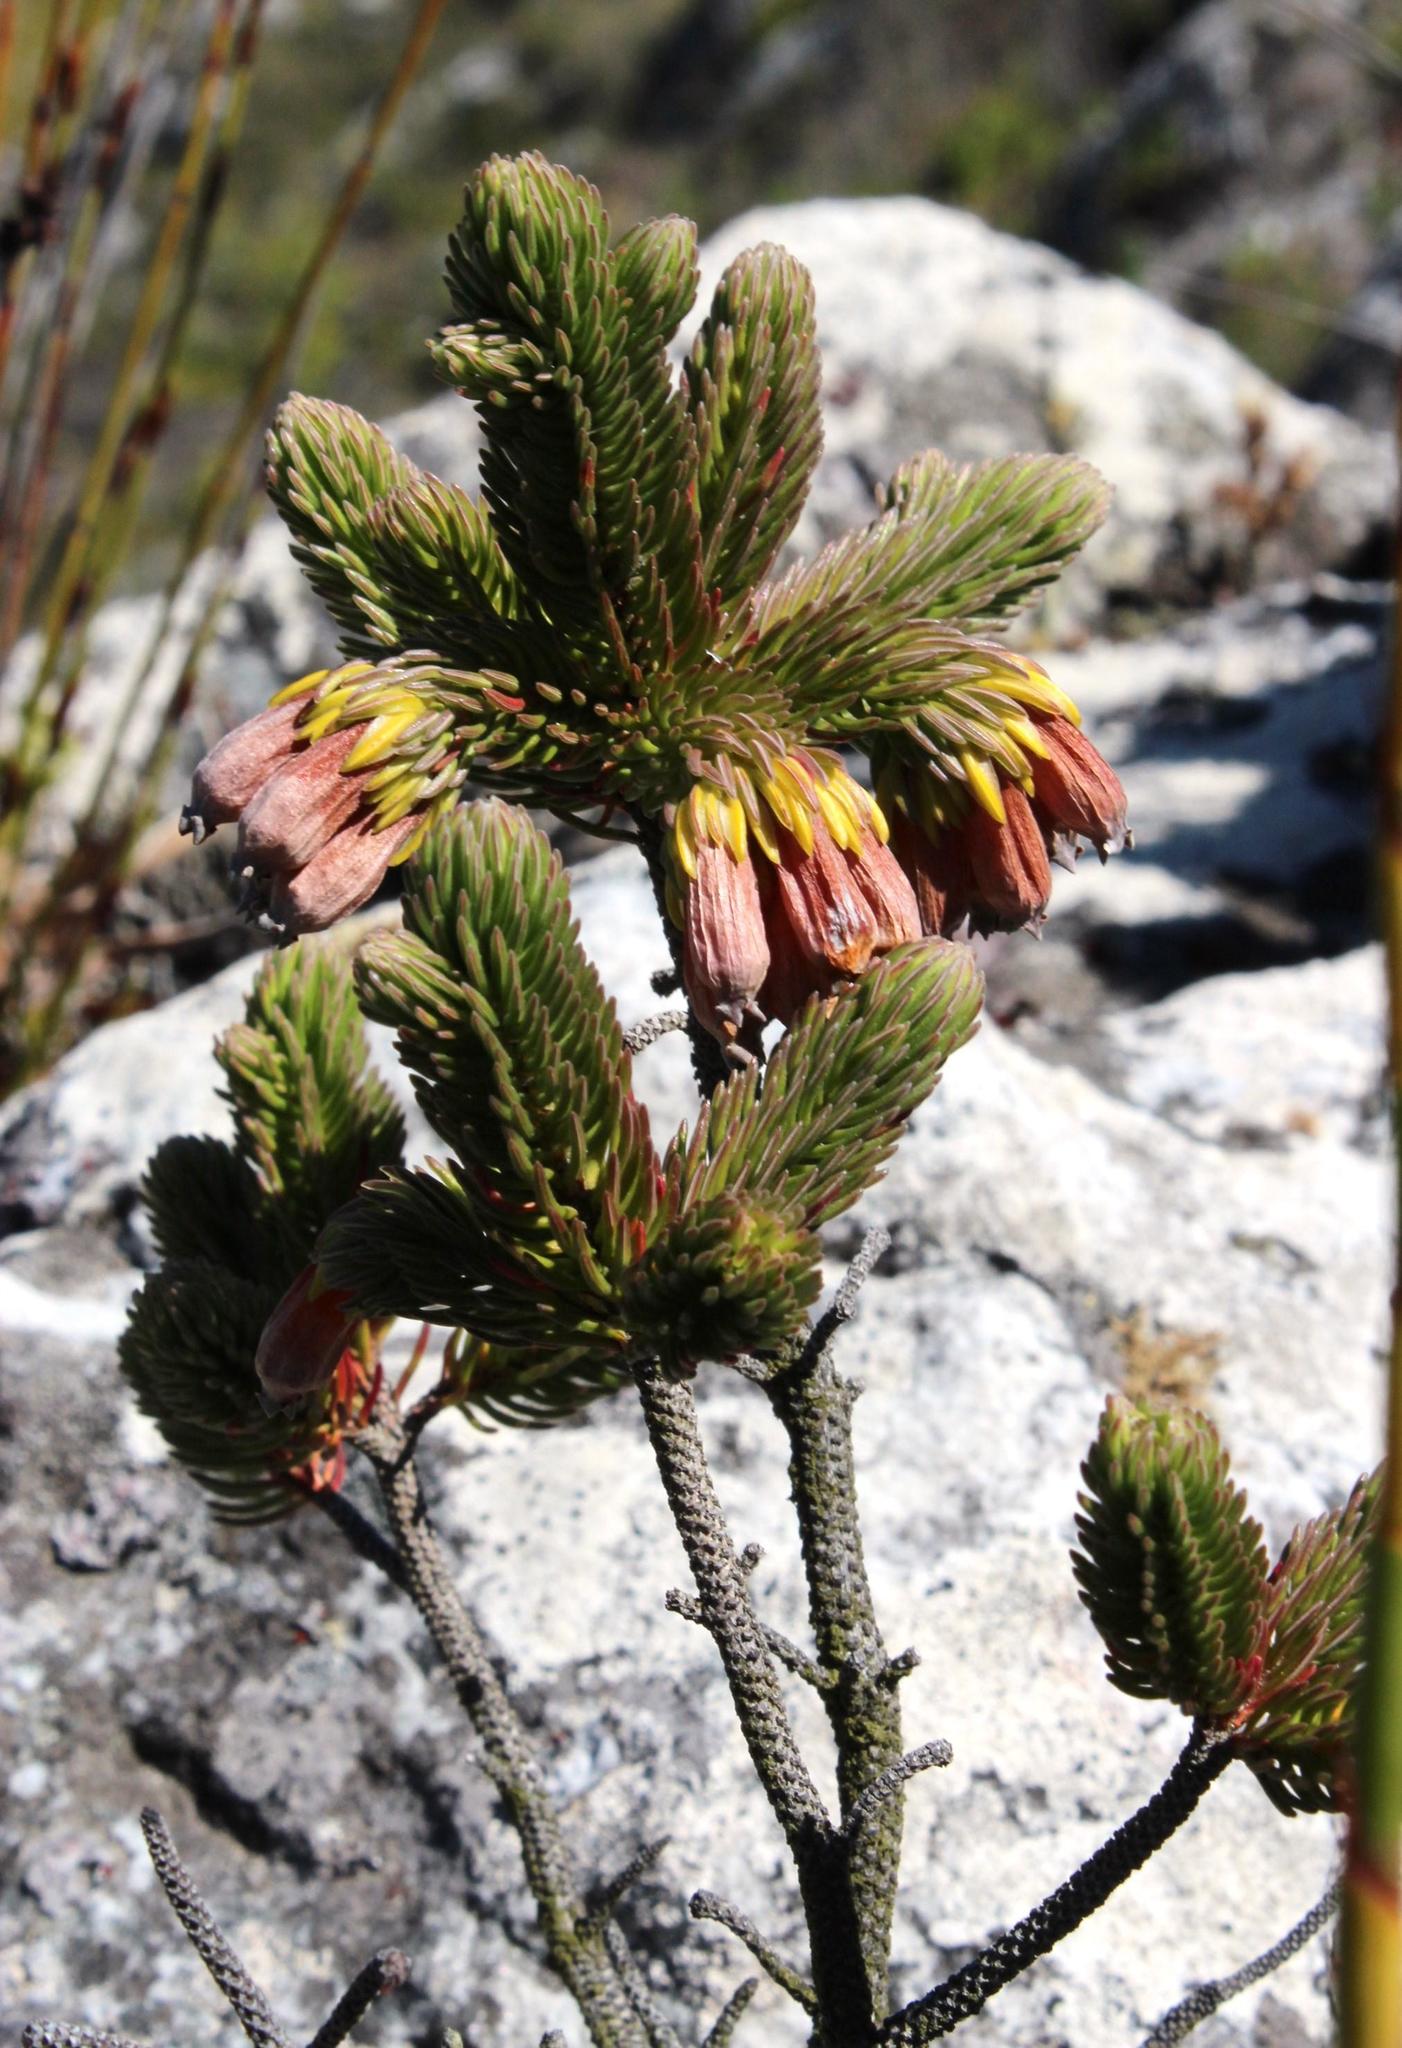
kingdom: Plantae
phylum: Tracheophyta
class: Magnoliopsida
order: Ericales
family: Ericaceae
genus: Erica
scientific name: Erica ceraria
